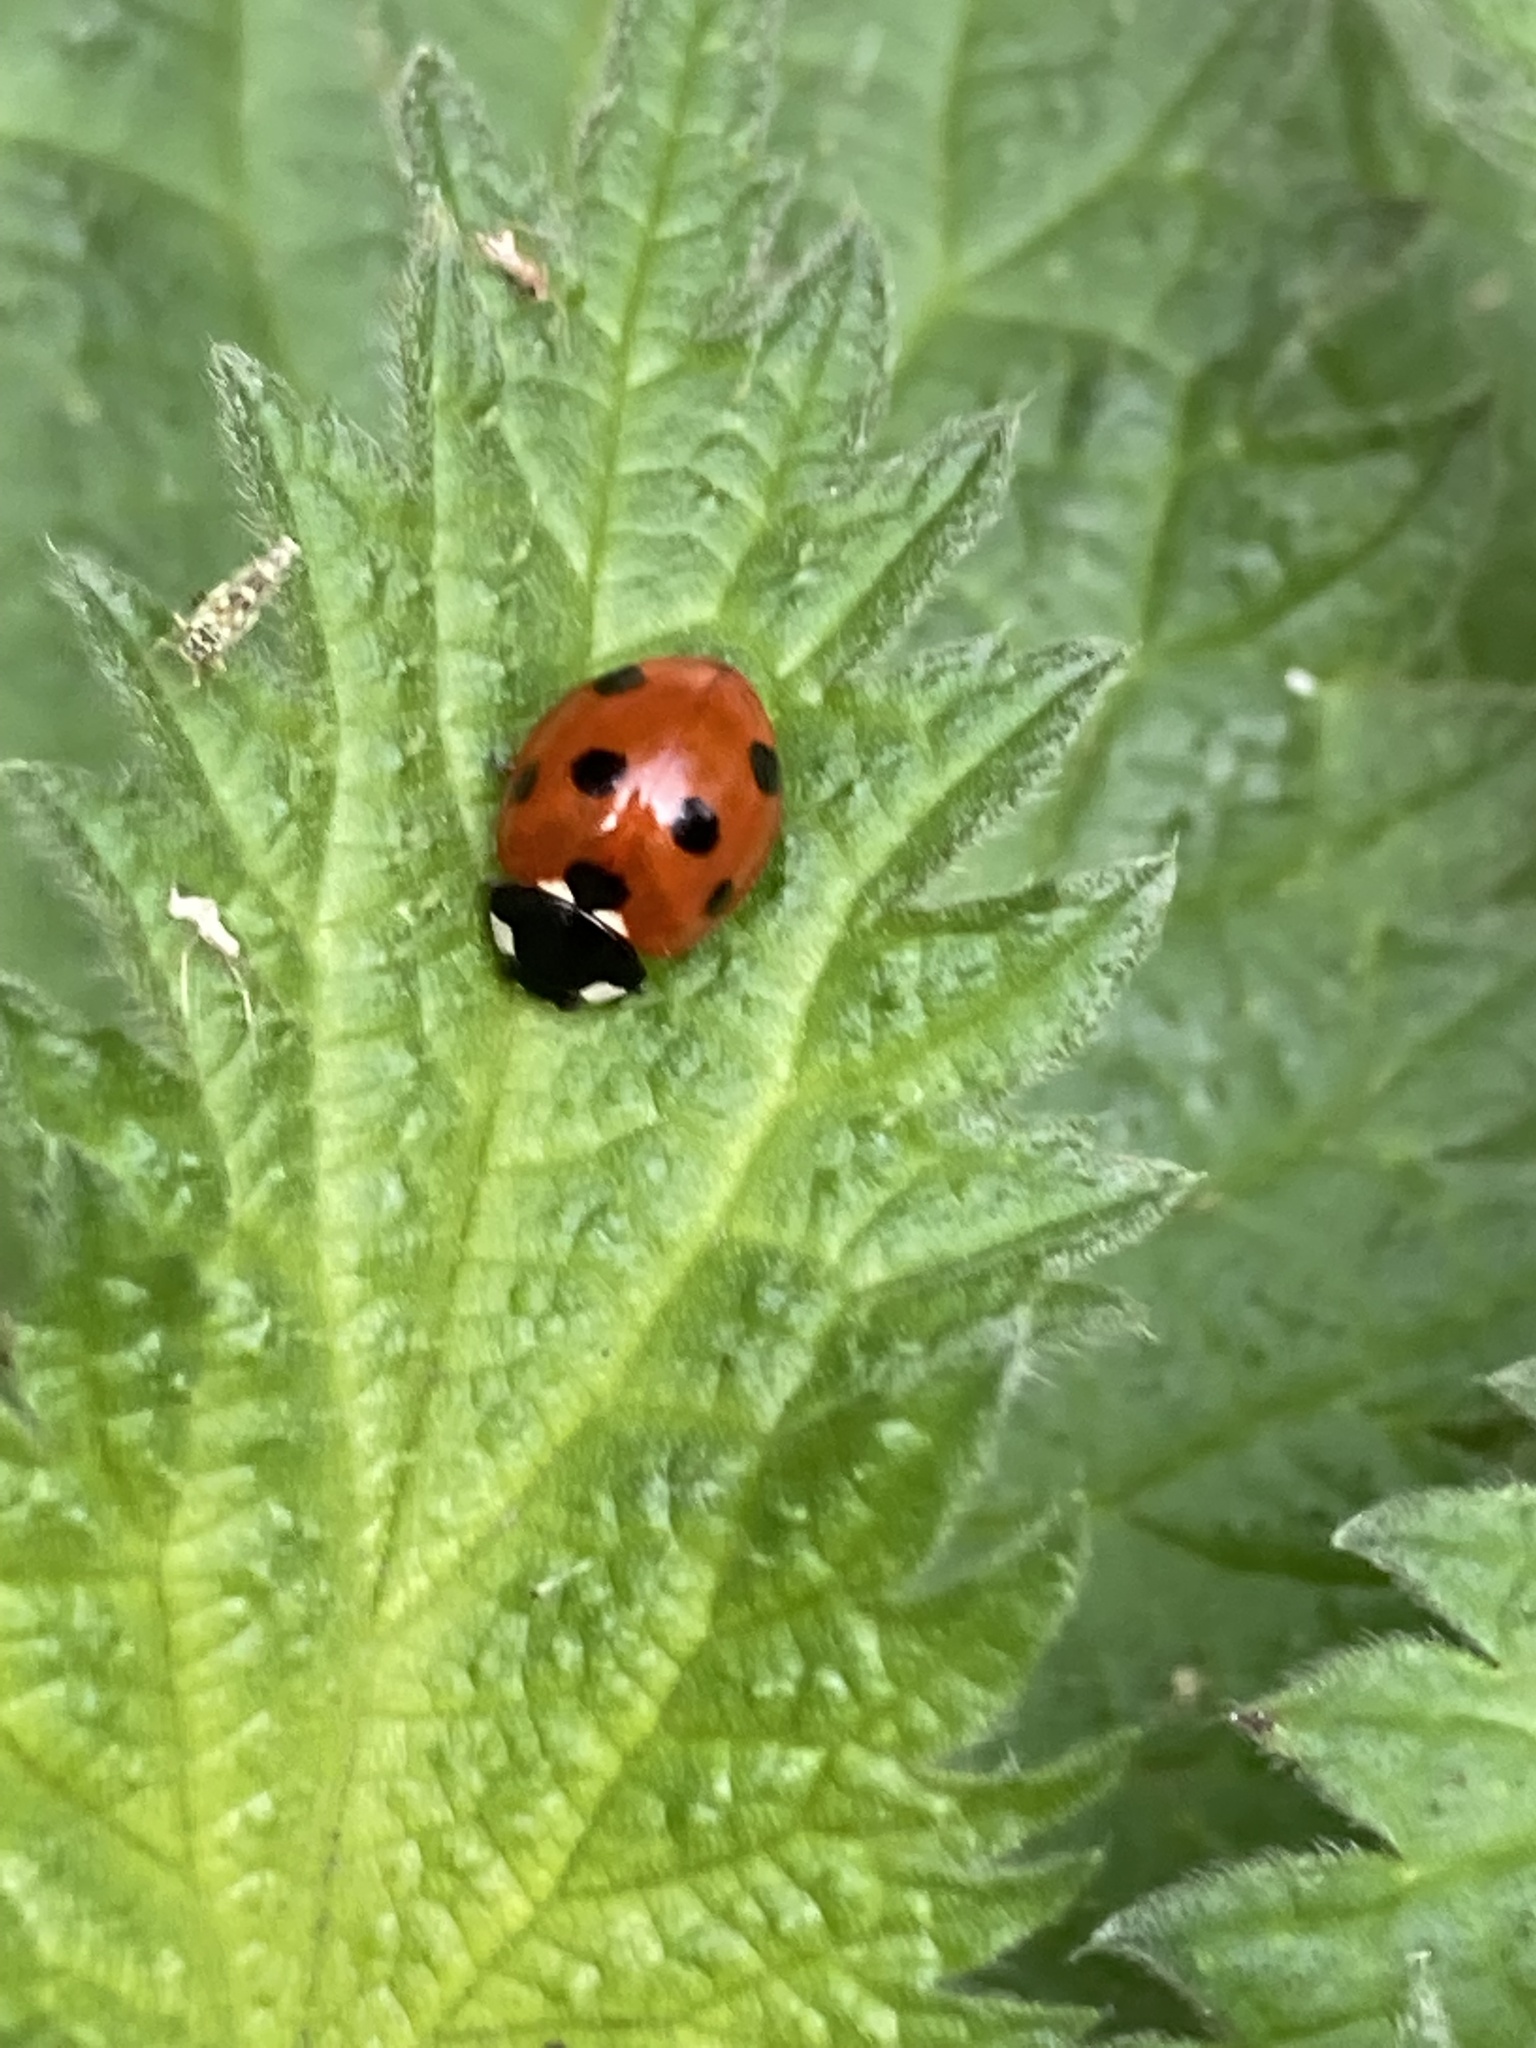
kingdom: Animalia
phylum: Arthropoda
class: Insecta
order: Coleoptera
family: Coccinellidae
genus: Coccinella
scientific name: Coccinella septempunctata
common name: Sevenspotted lady beetle
